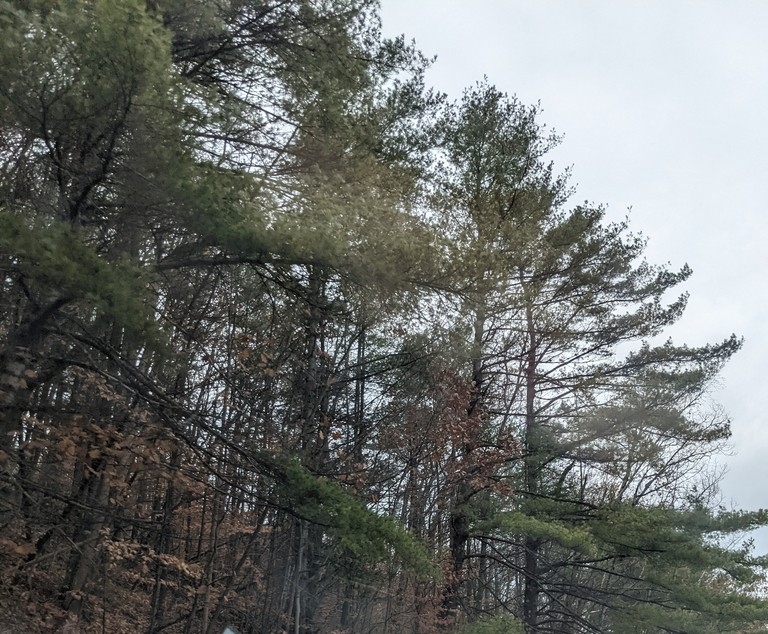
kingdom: Plantae
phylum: Tracheophyta
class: Pinopsida
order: Pinales
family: Pinaceae
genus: Pinus
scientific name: Pinus strobus
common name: Weymouth pine
